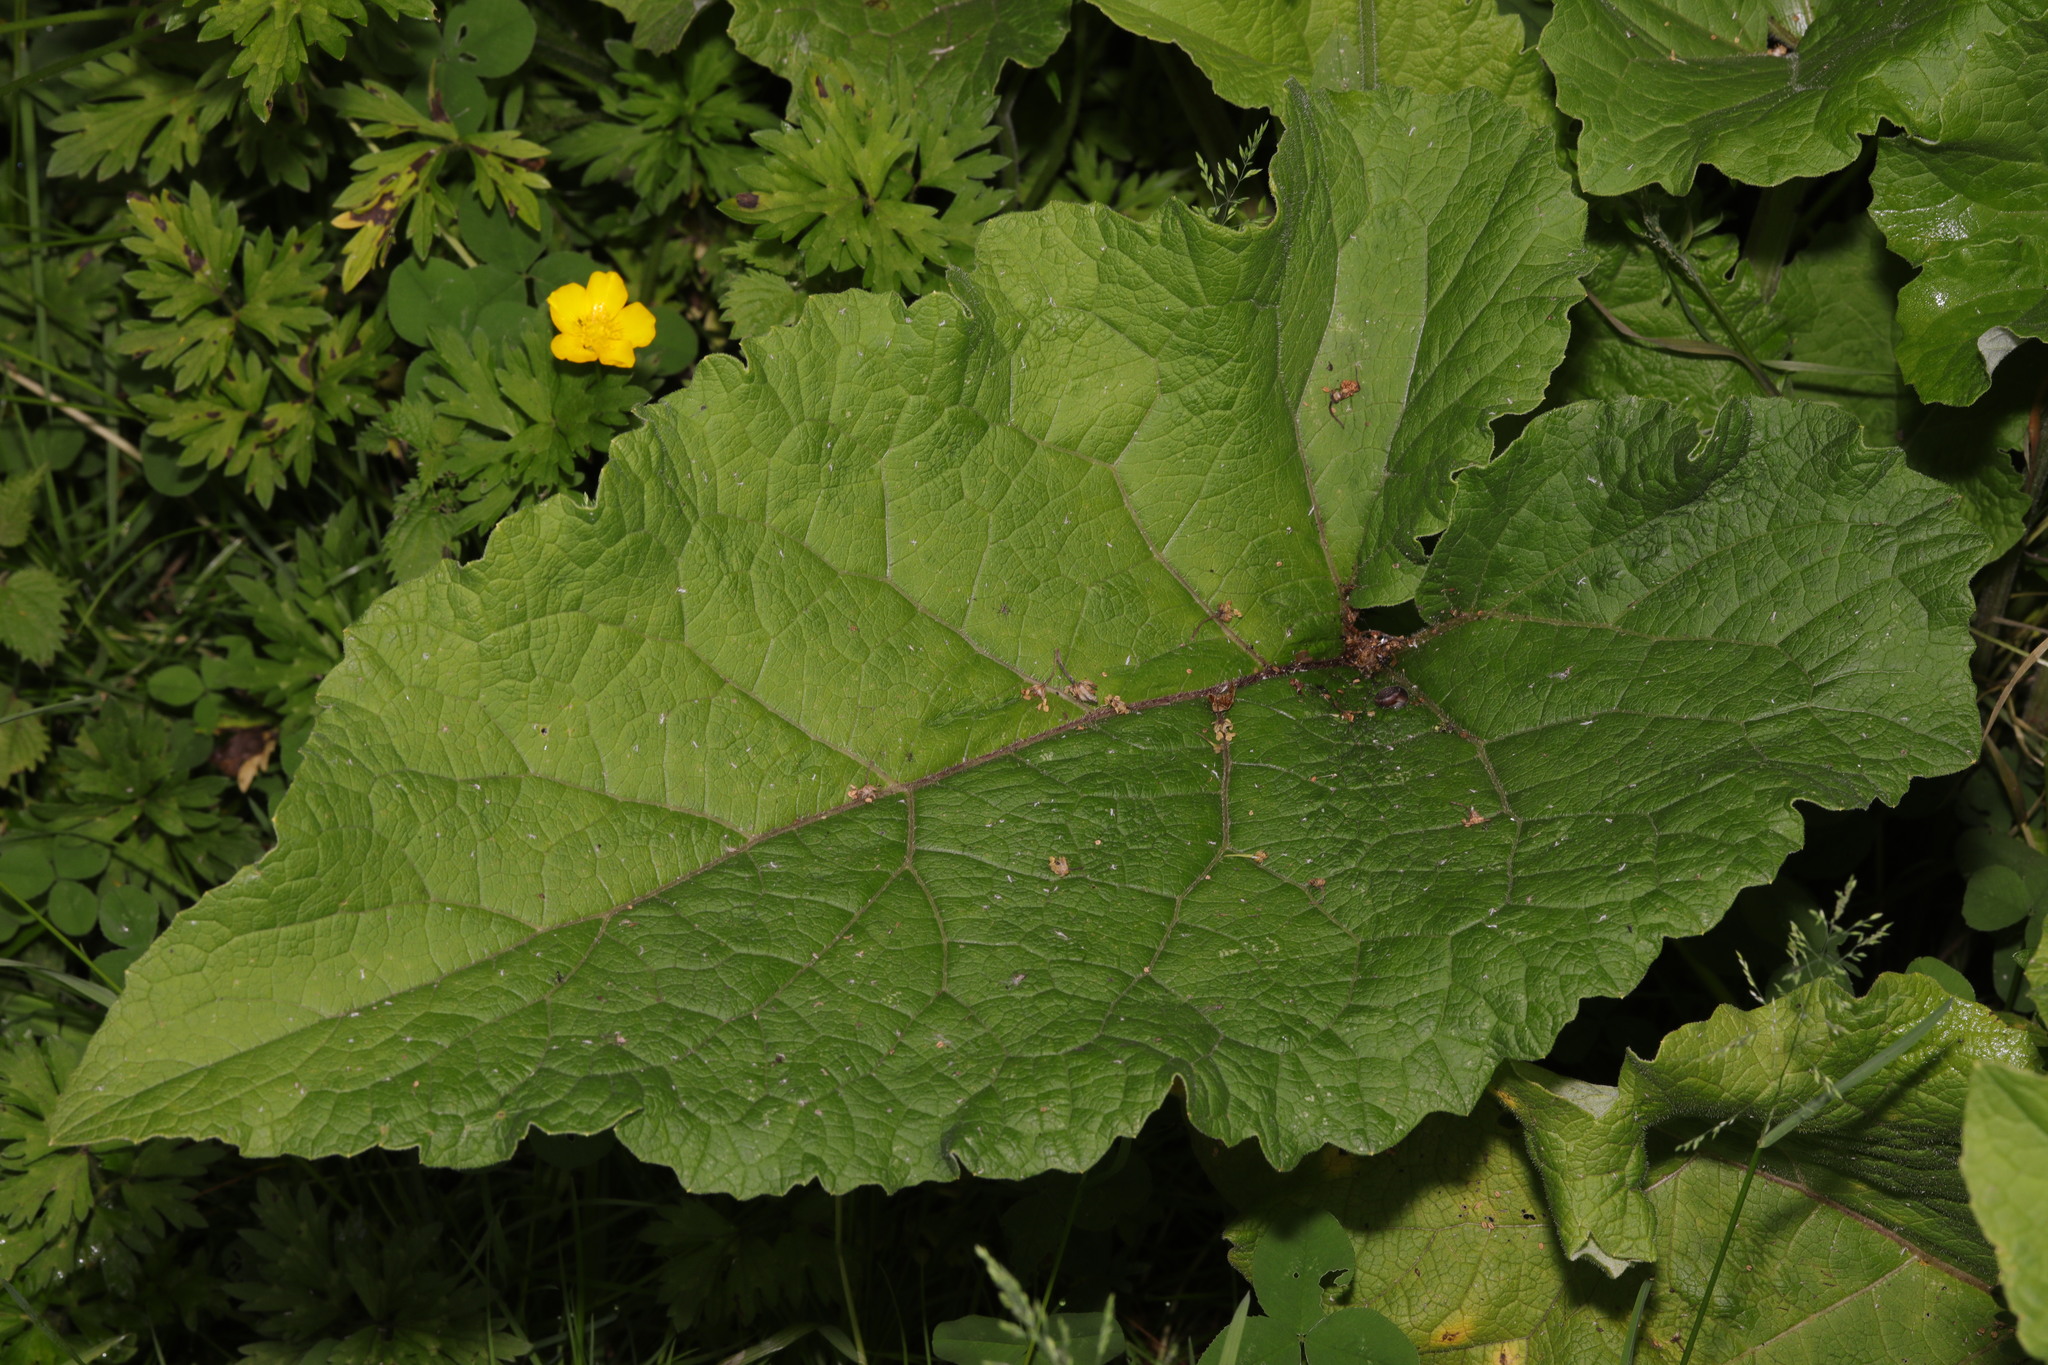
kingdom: Plantae
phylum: Tracheophyta
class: Magnoliopsida
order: Asterales
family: Asteraceae
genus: Arctium
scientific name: Arctium minus
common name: Lesser burdock
